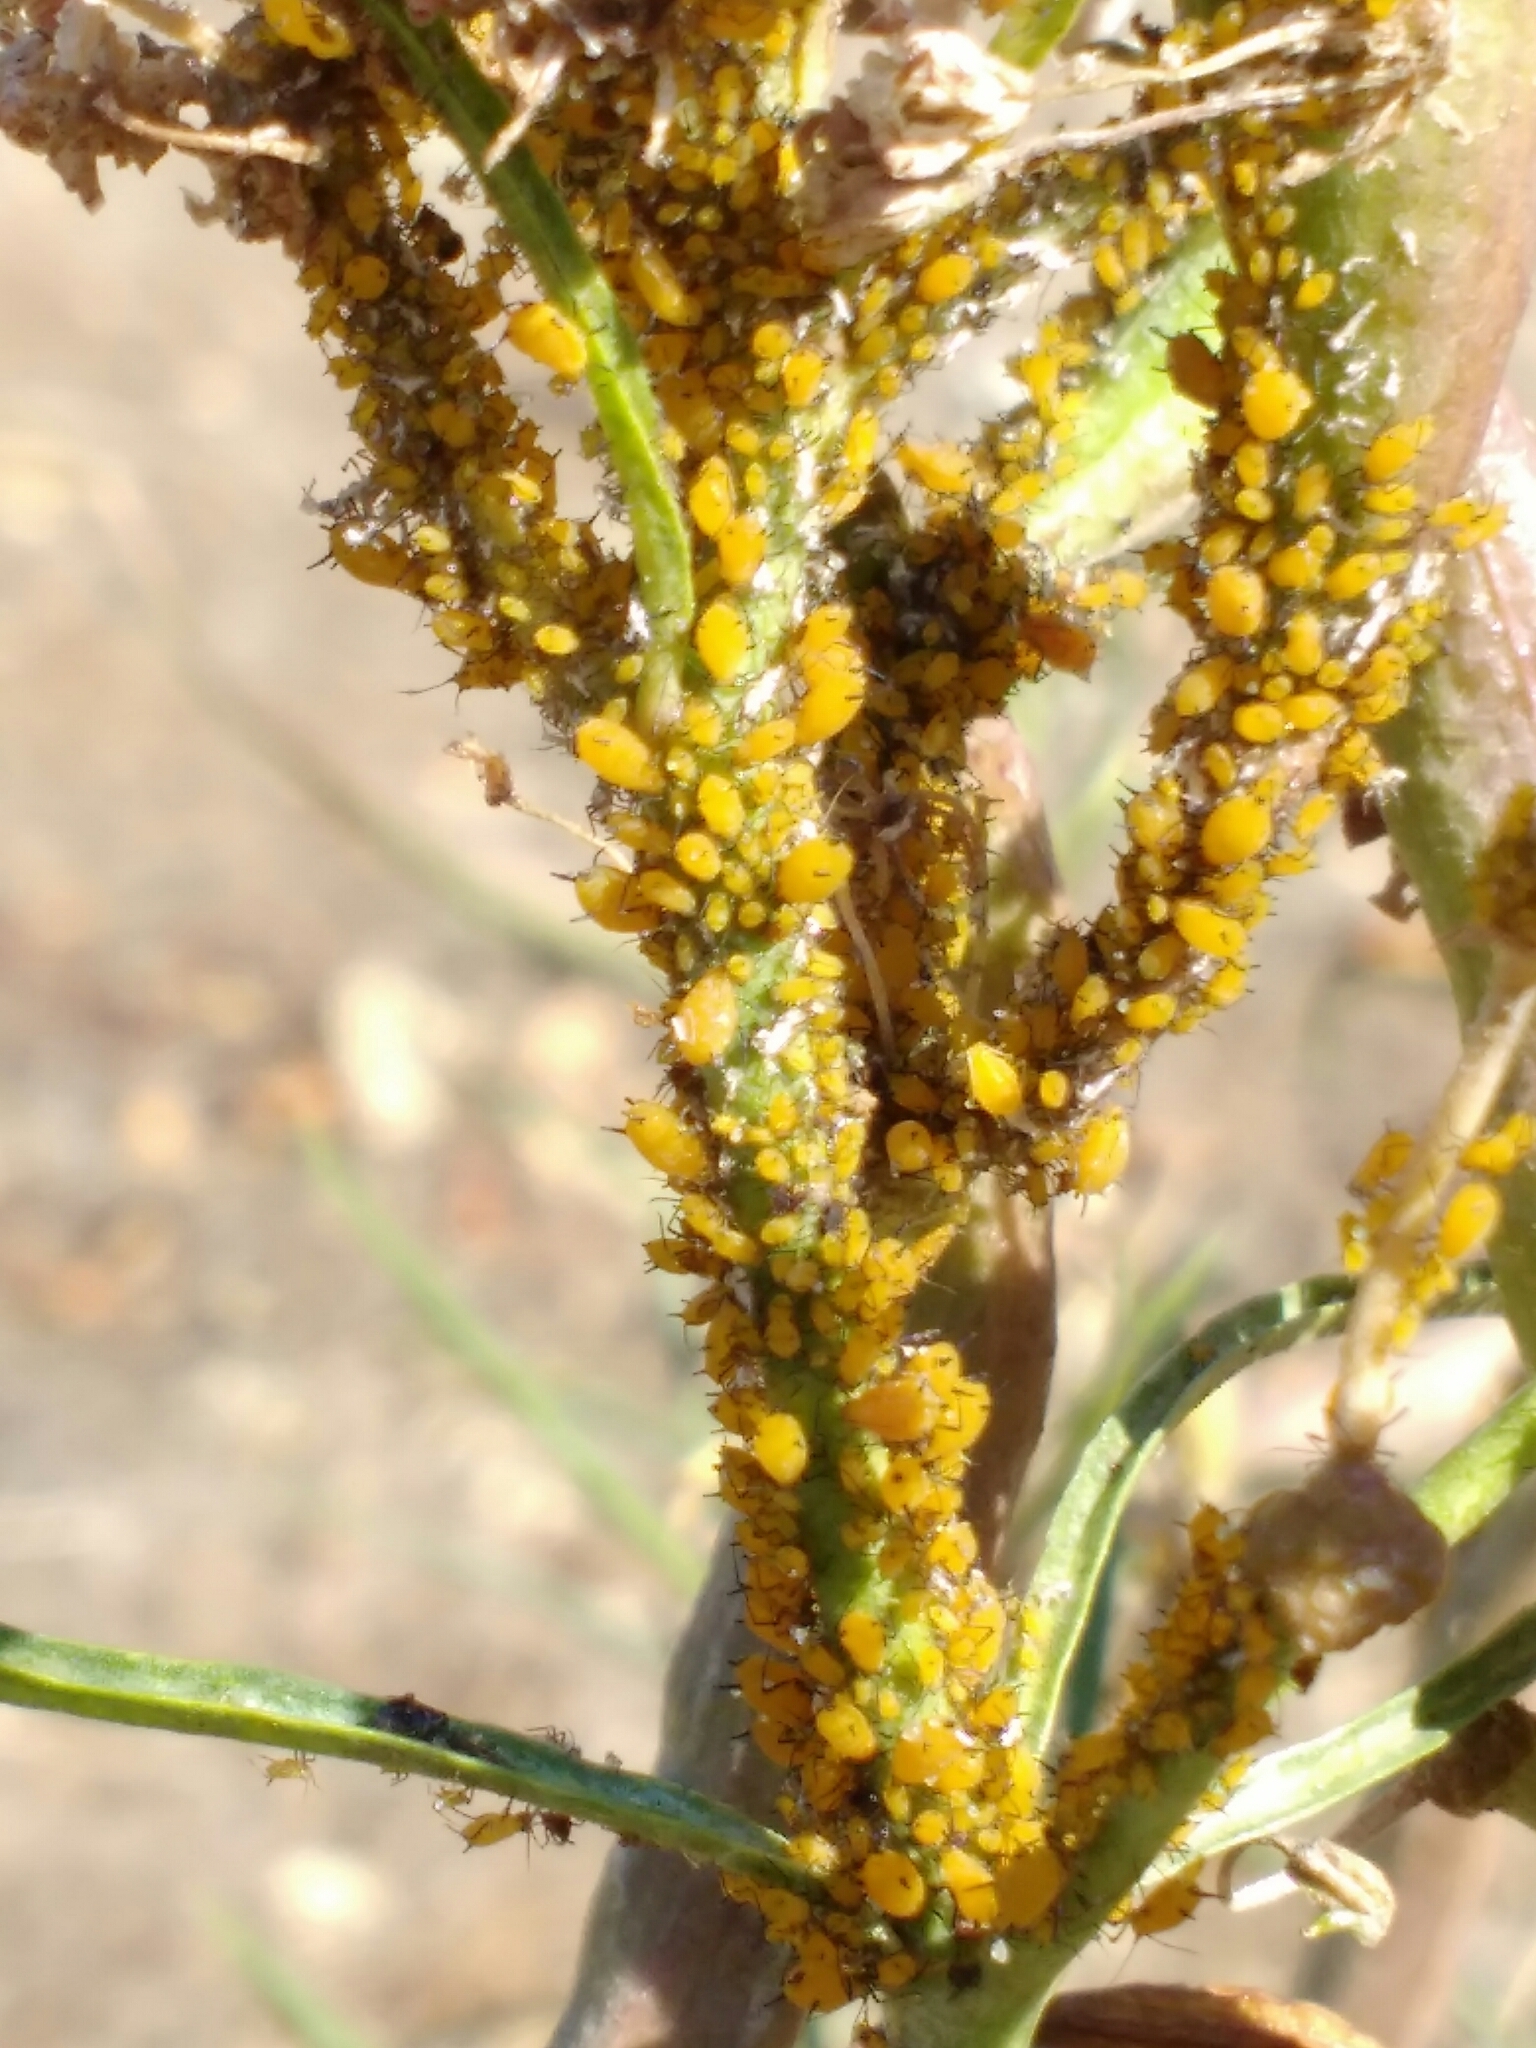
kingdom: Animalia
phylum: Arthropoda
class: Insecta
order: Hemiptera
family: Aphididae
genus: Aphis
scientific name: Aphis nerii
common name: Oleander aphid
